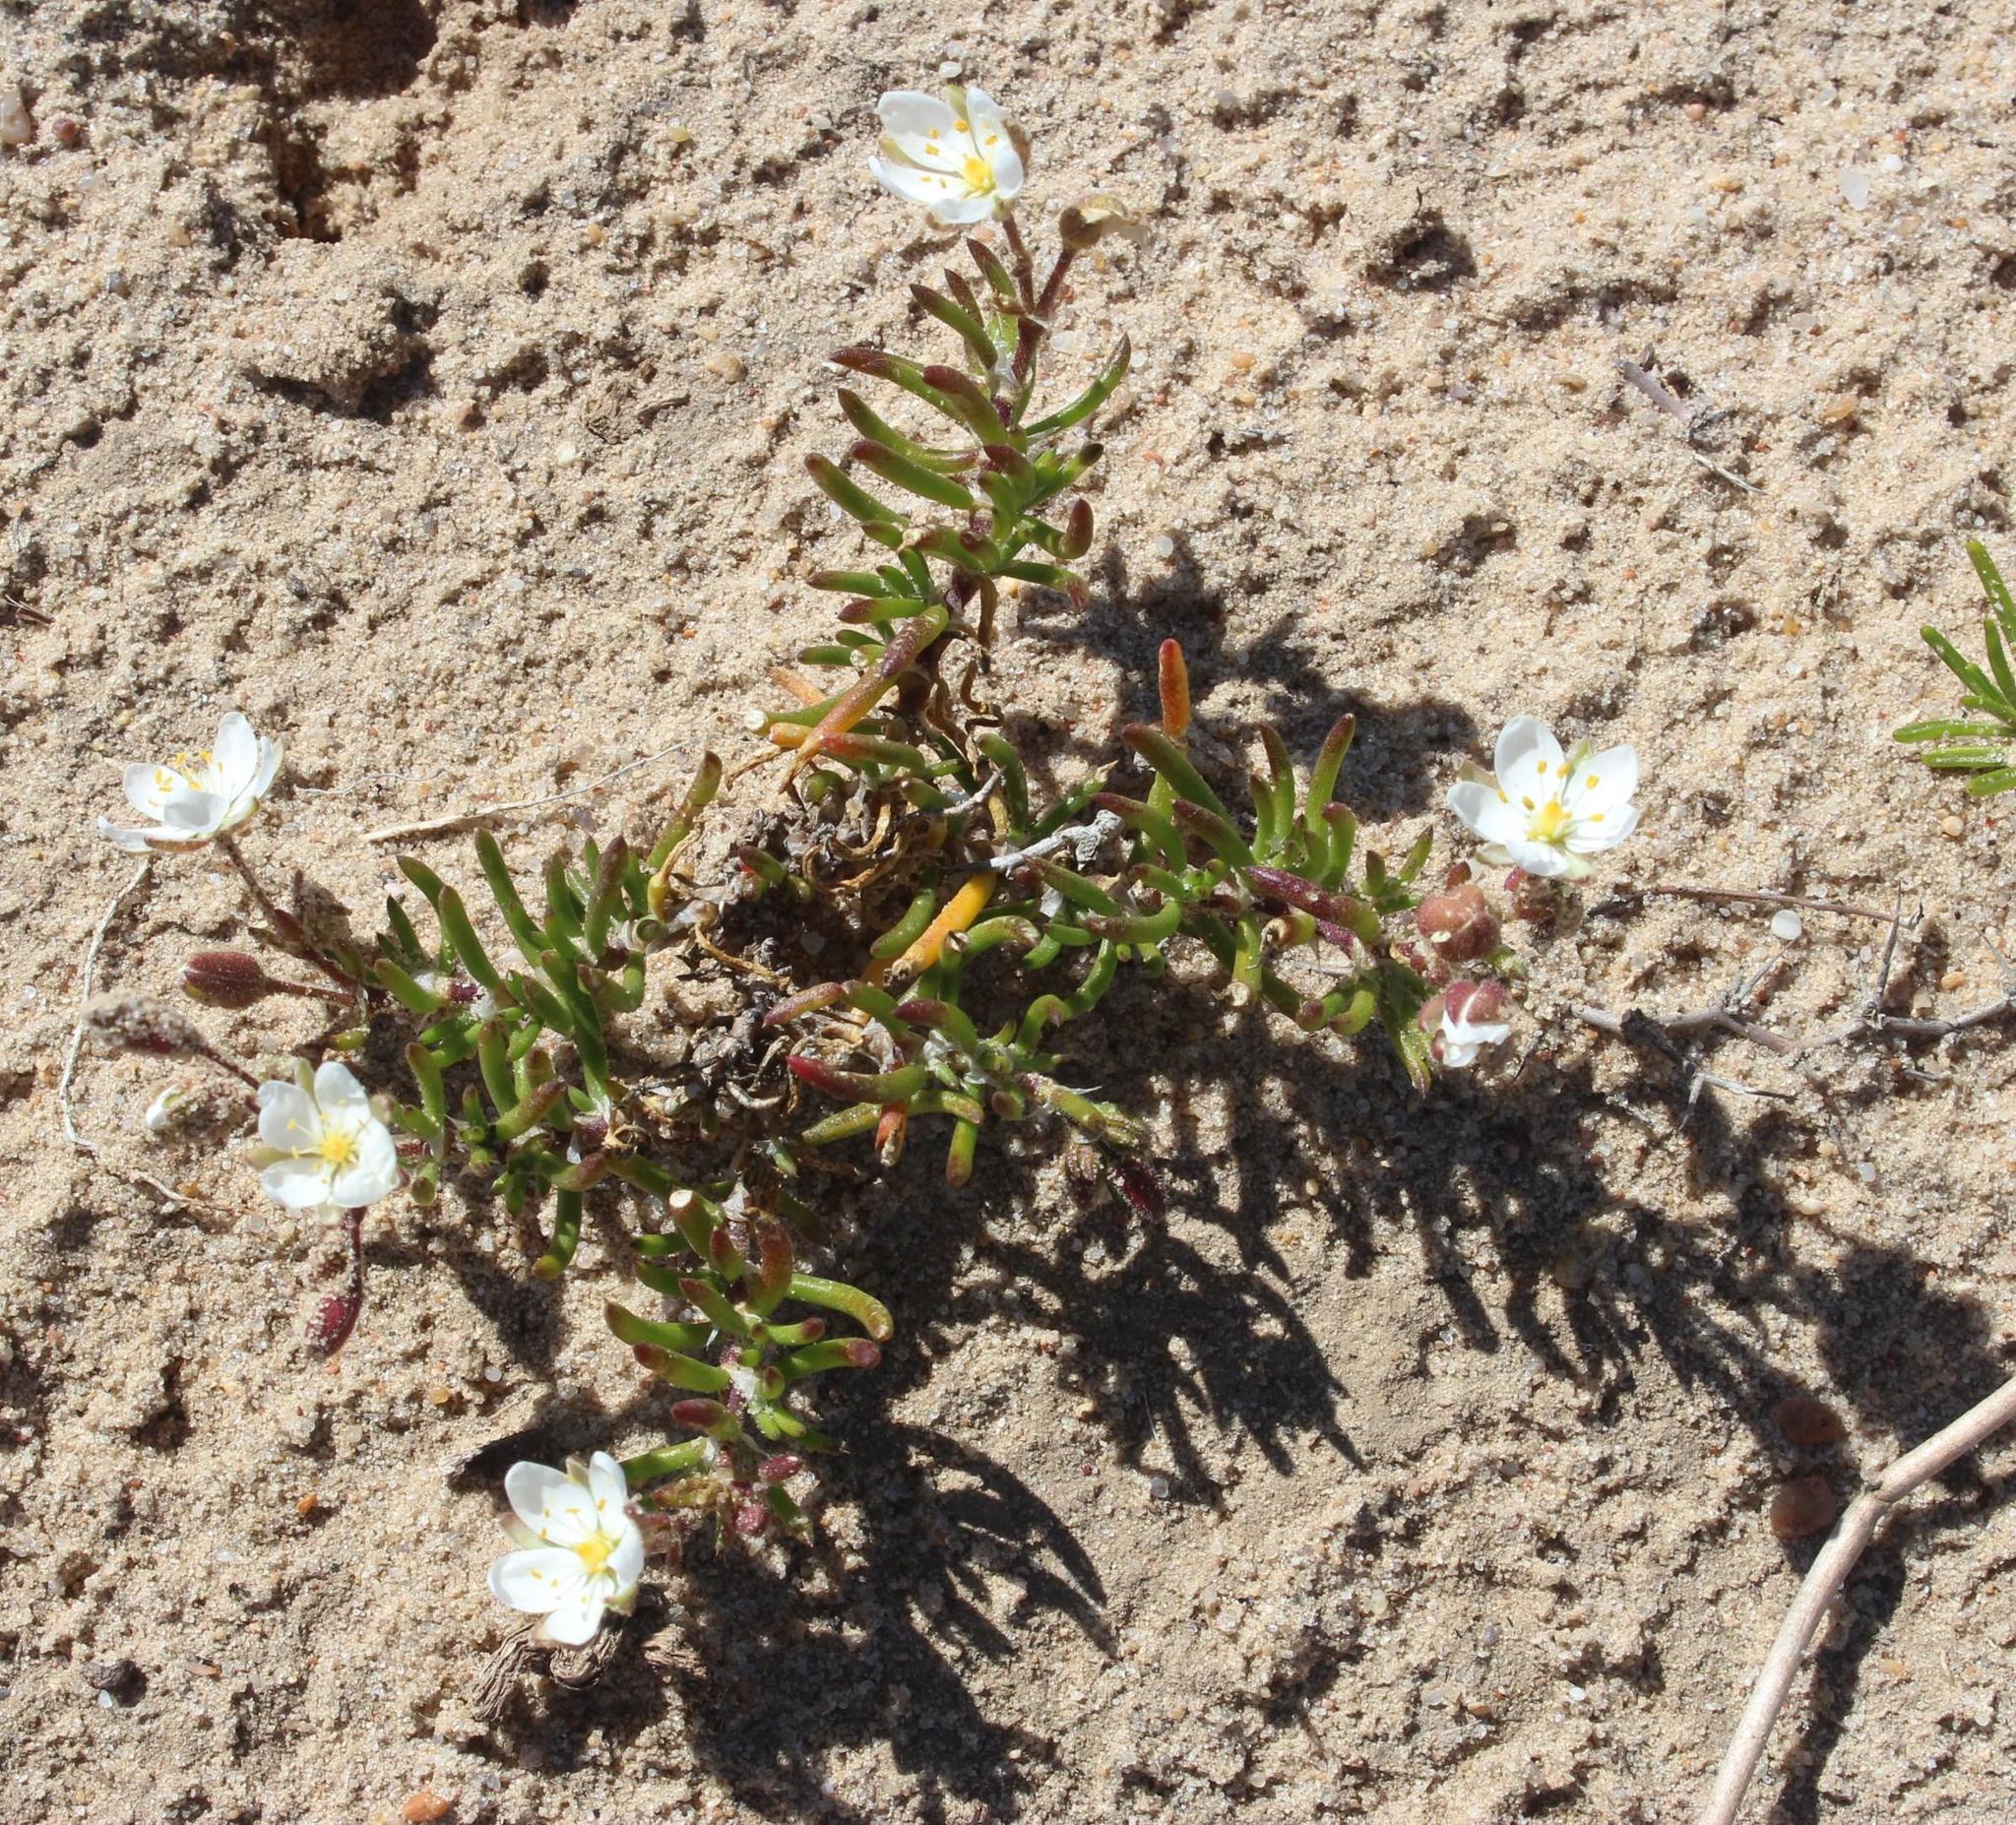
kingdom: Plantae
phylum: Tracheophyta
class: Magnoliopsida
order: Caryophyllales
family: Caryophyllaceae
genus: Spergularia
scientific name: Spergularia media
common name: Greater sea-spurrey
